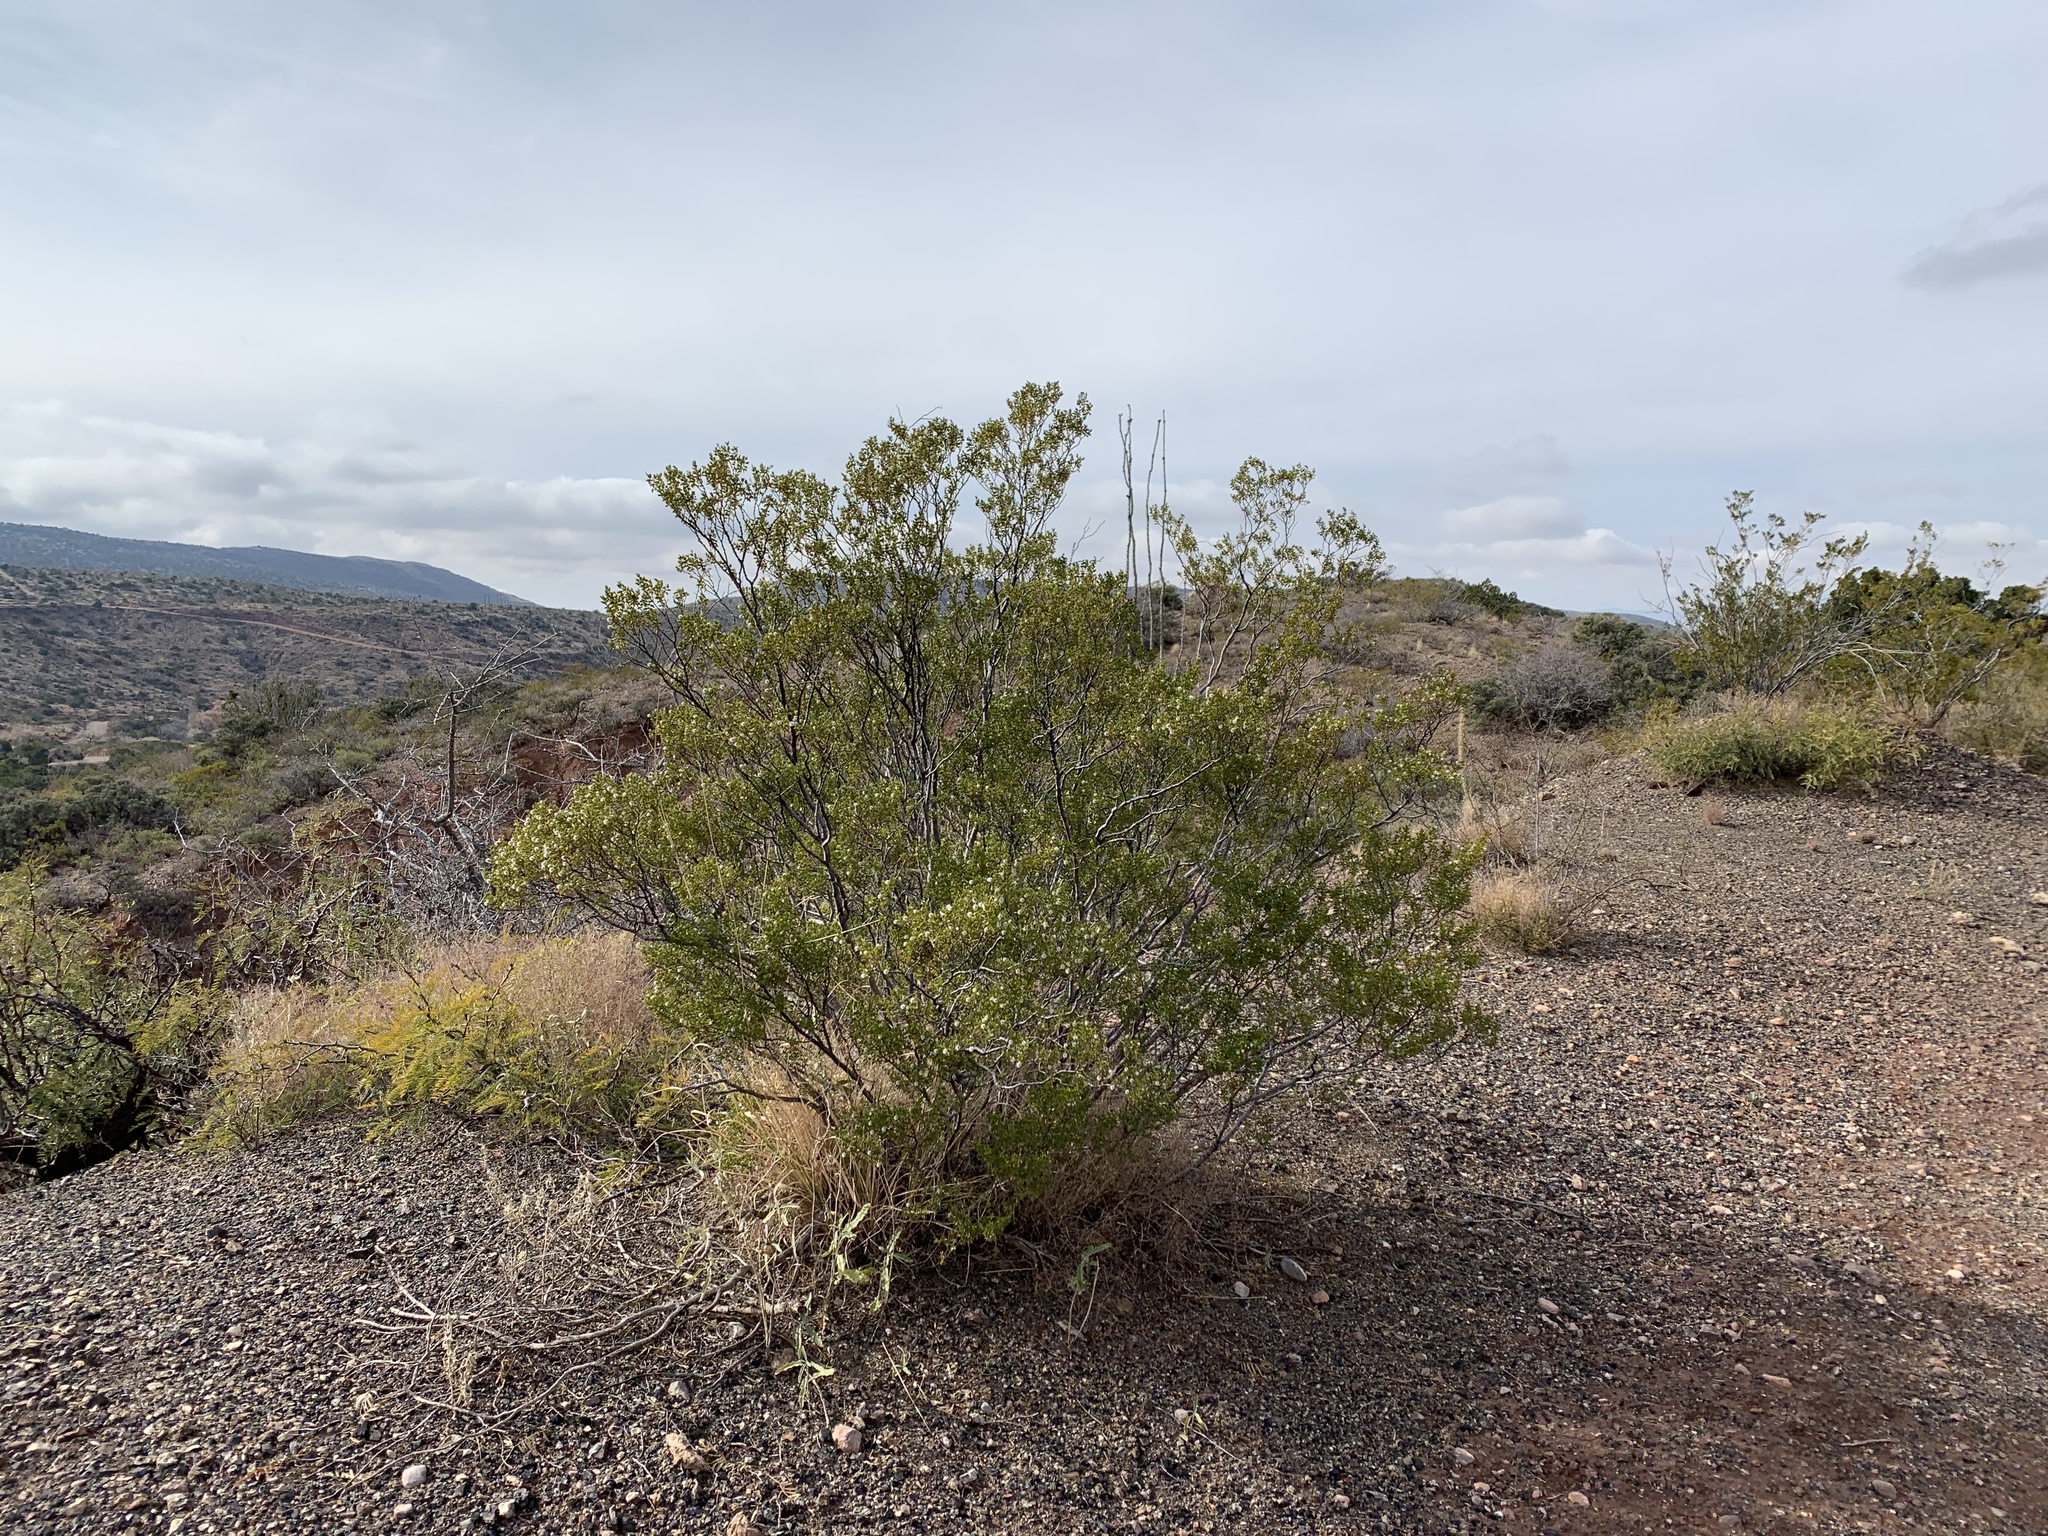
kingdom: Plantae
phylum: Tracheophyta
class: Magnoliopsida
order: Zygophyllales
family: Zygophyllaceae
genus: Larrea
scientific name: Larrea tridentata
